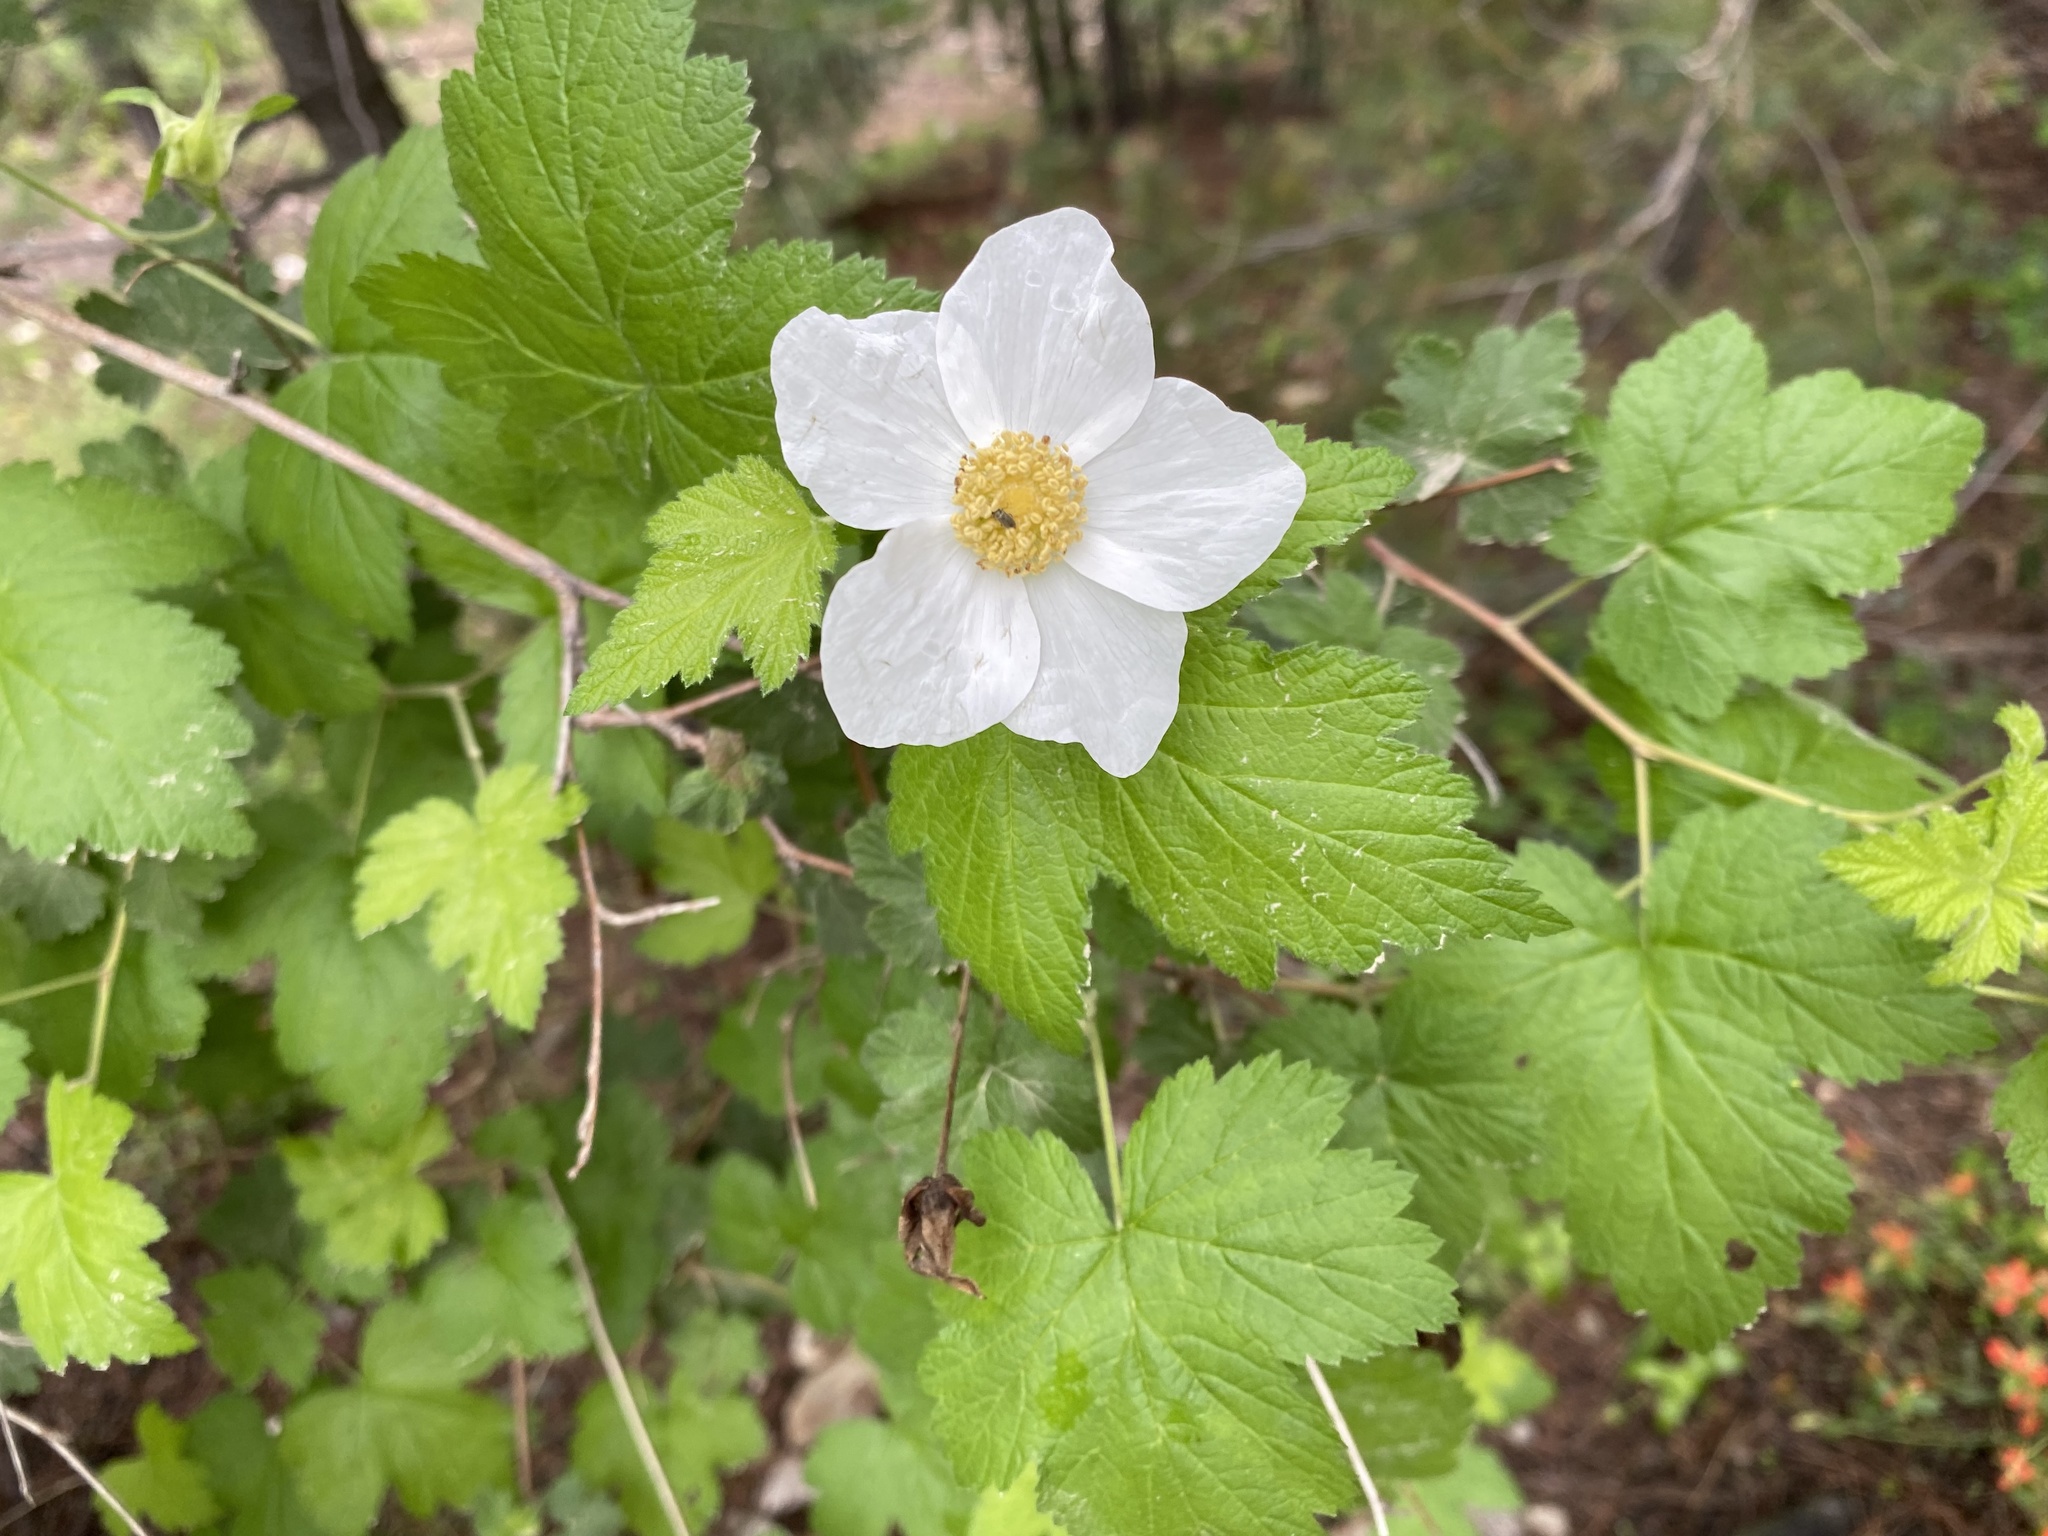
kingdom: Plantae
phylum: Tracheophyta
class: Magnoliopsida
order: Rosales
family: Rosaceae
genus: Rubus
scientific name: Rubus neomexicanus
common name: New mexico raspberry
